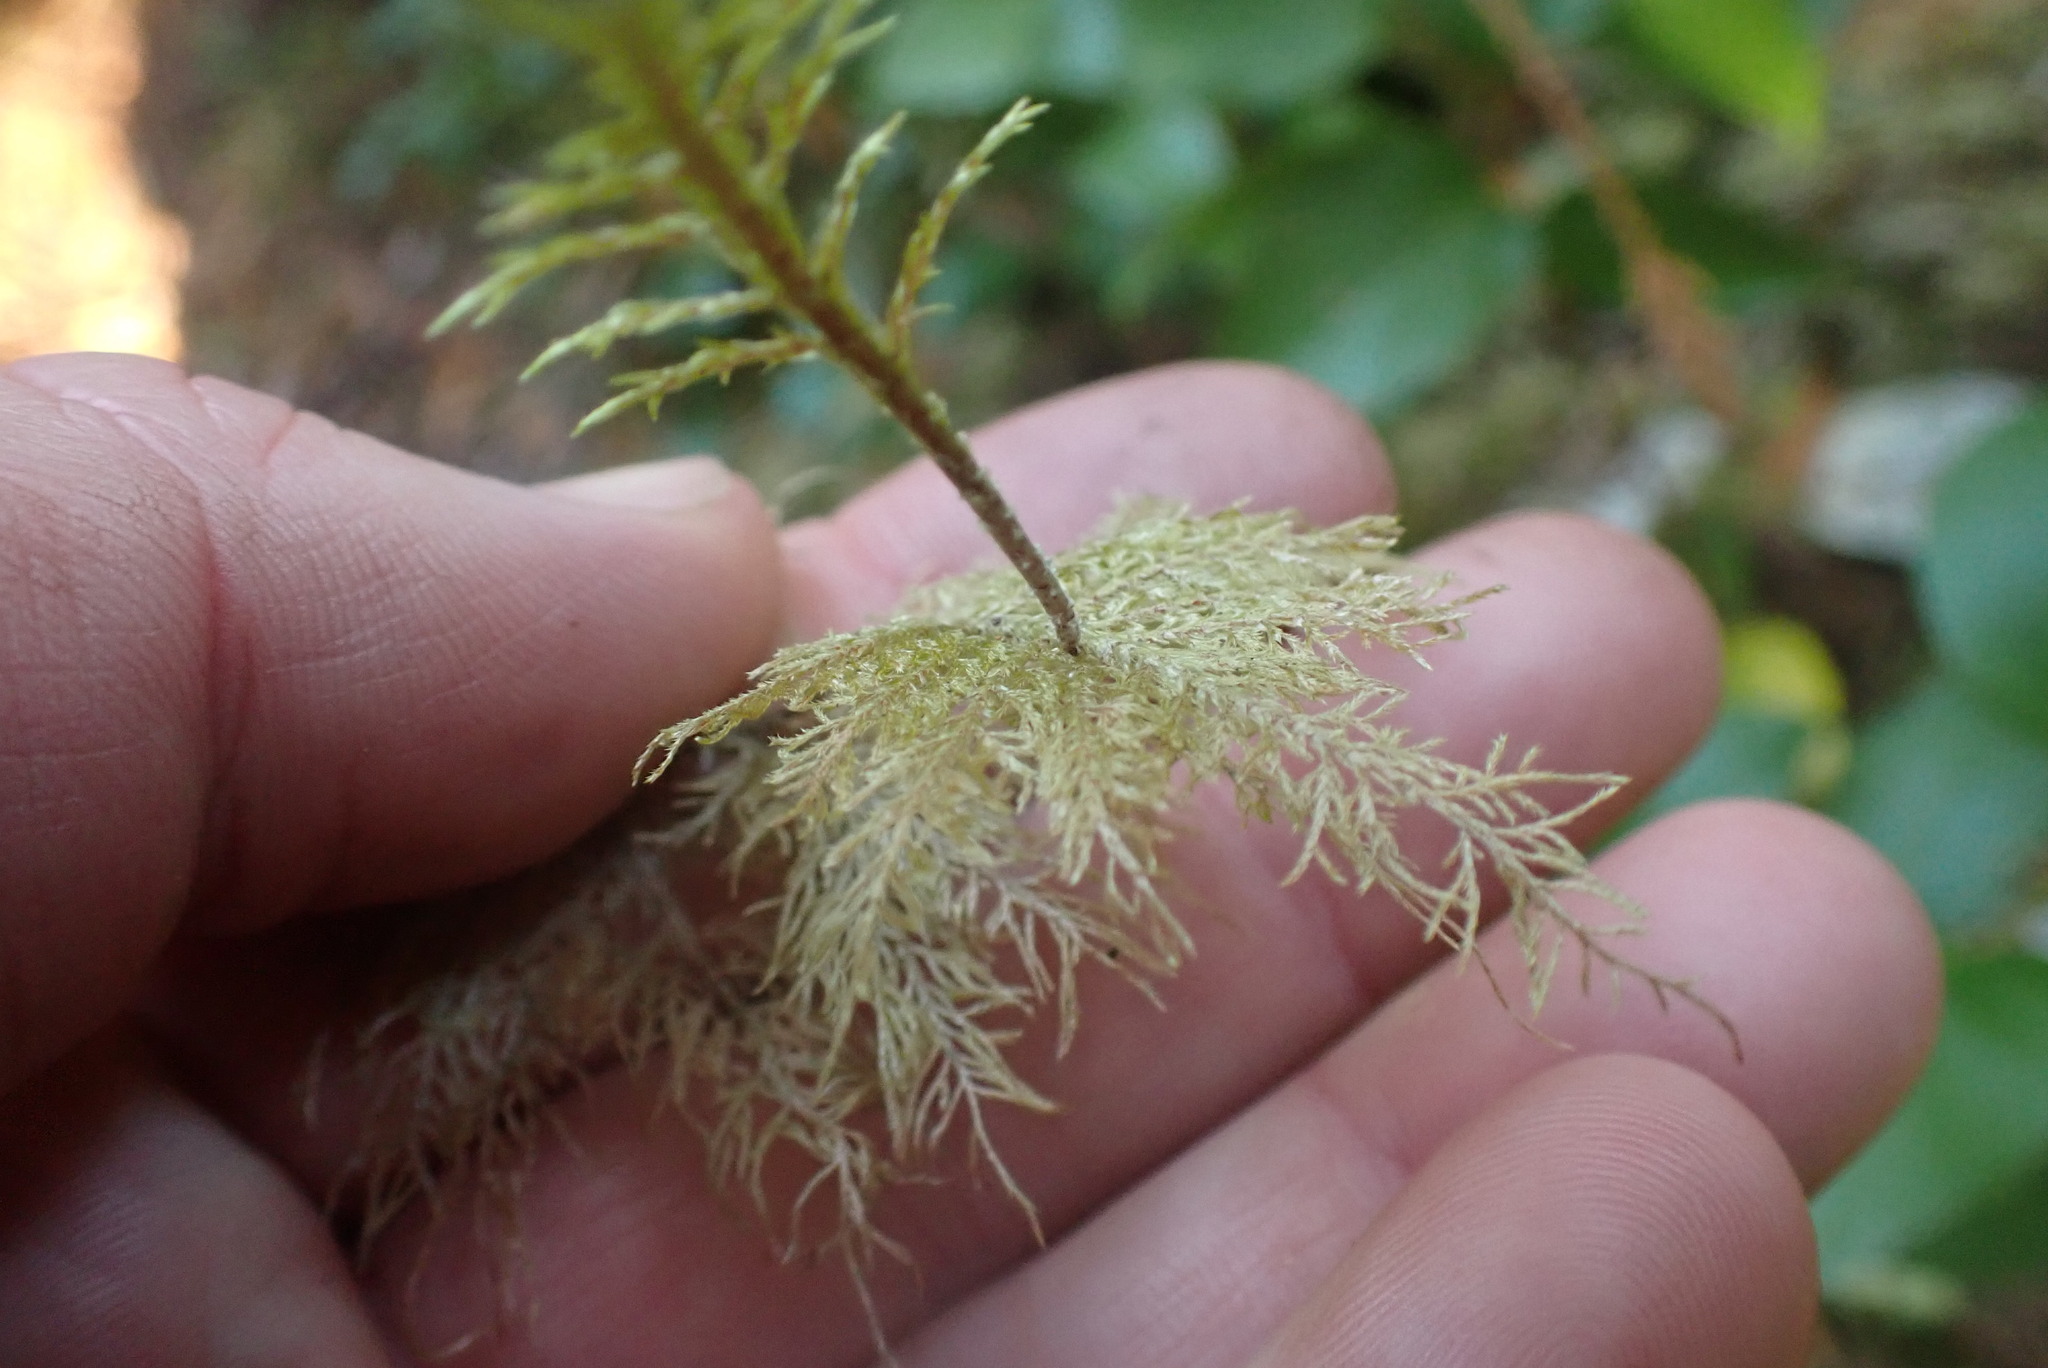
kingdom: Plantae
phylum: Bryophyta
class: Bryopsida
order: Hypnales
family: Hylocomiaceae
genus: Hylocomium
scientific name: Hylocomium splendens
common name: Stairstep moss
